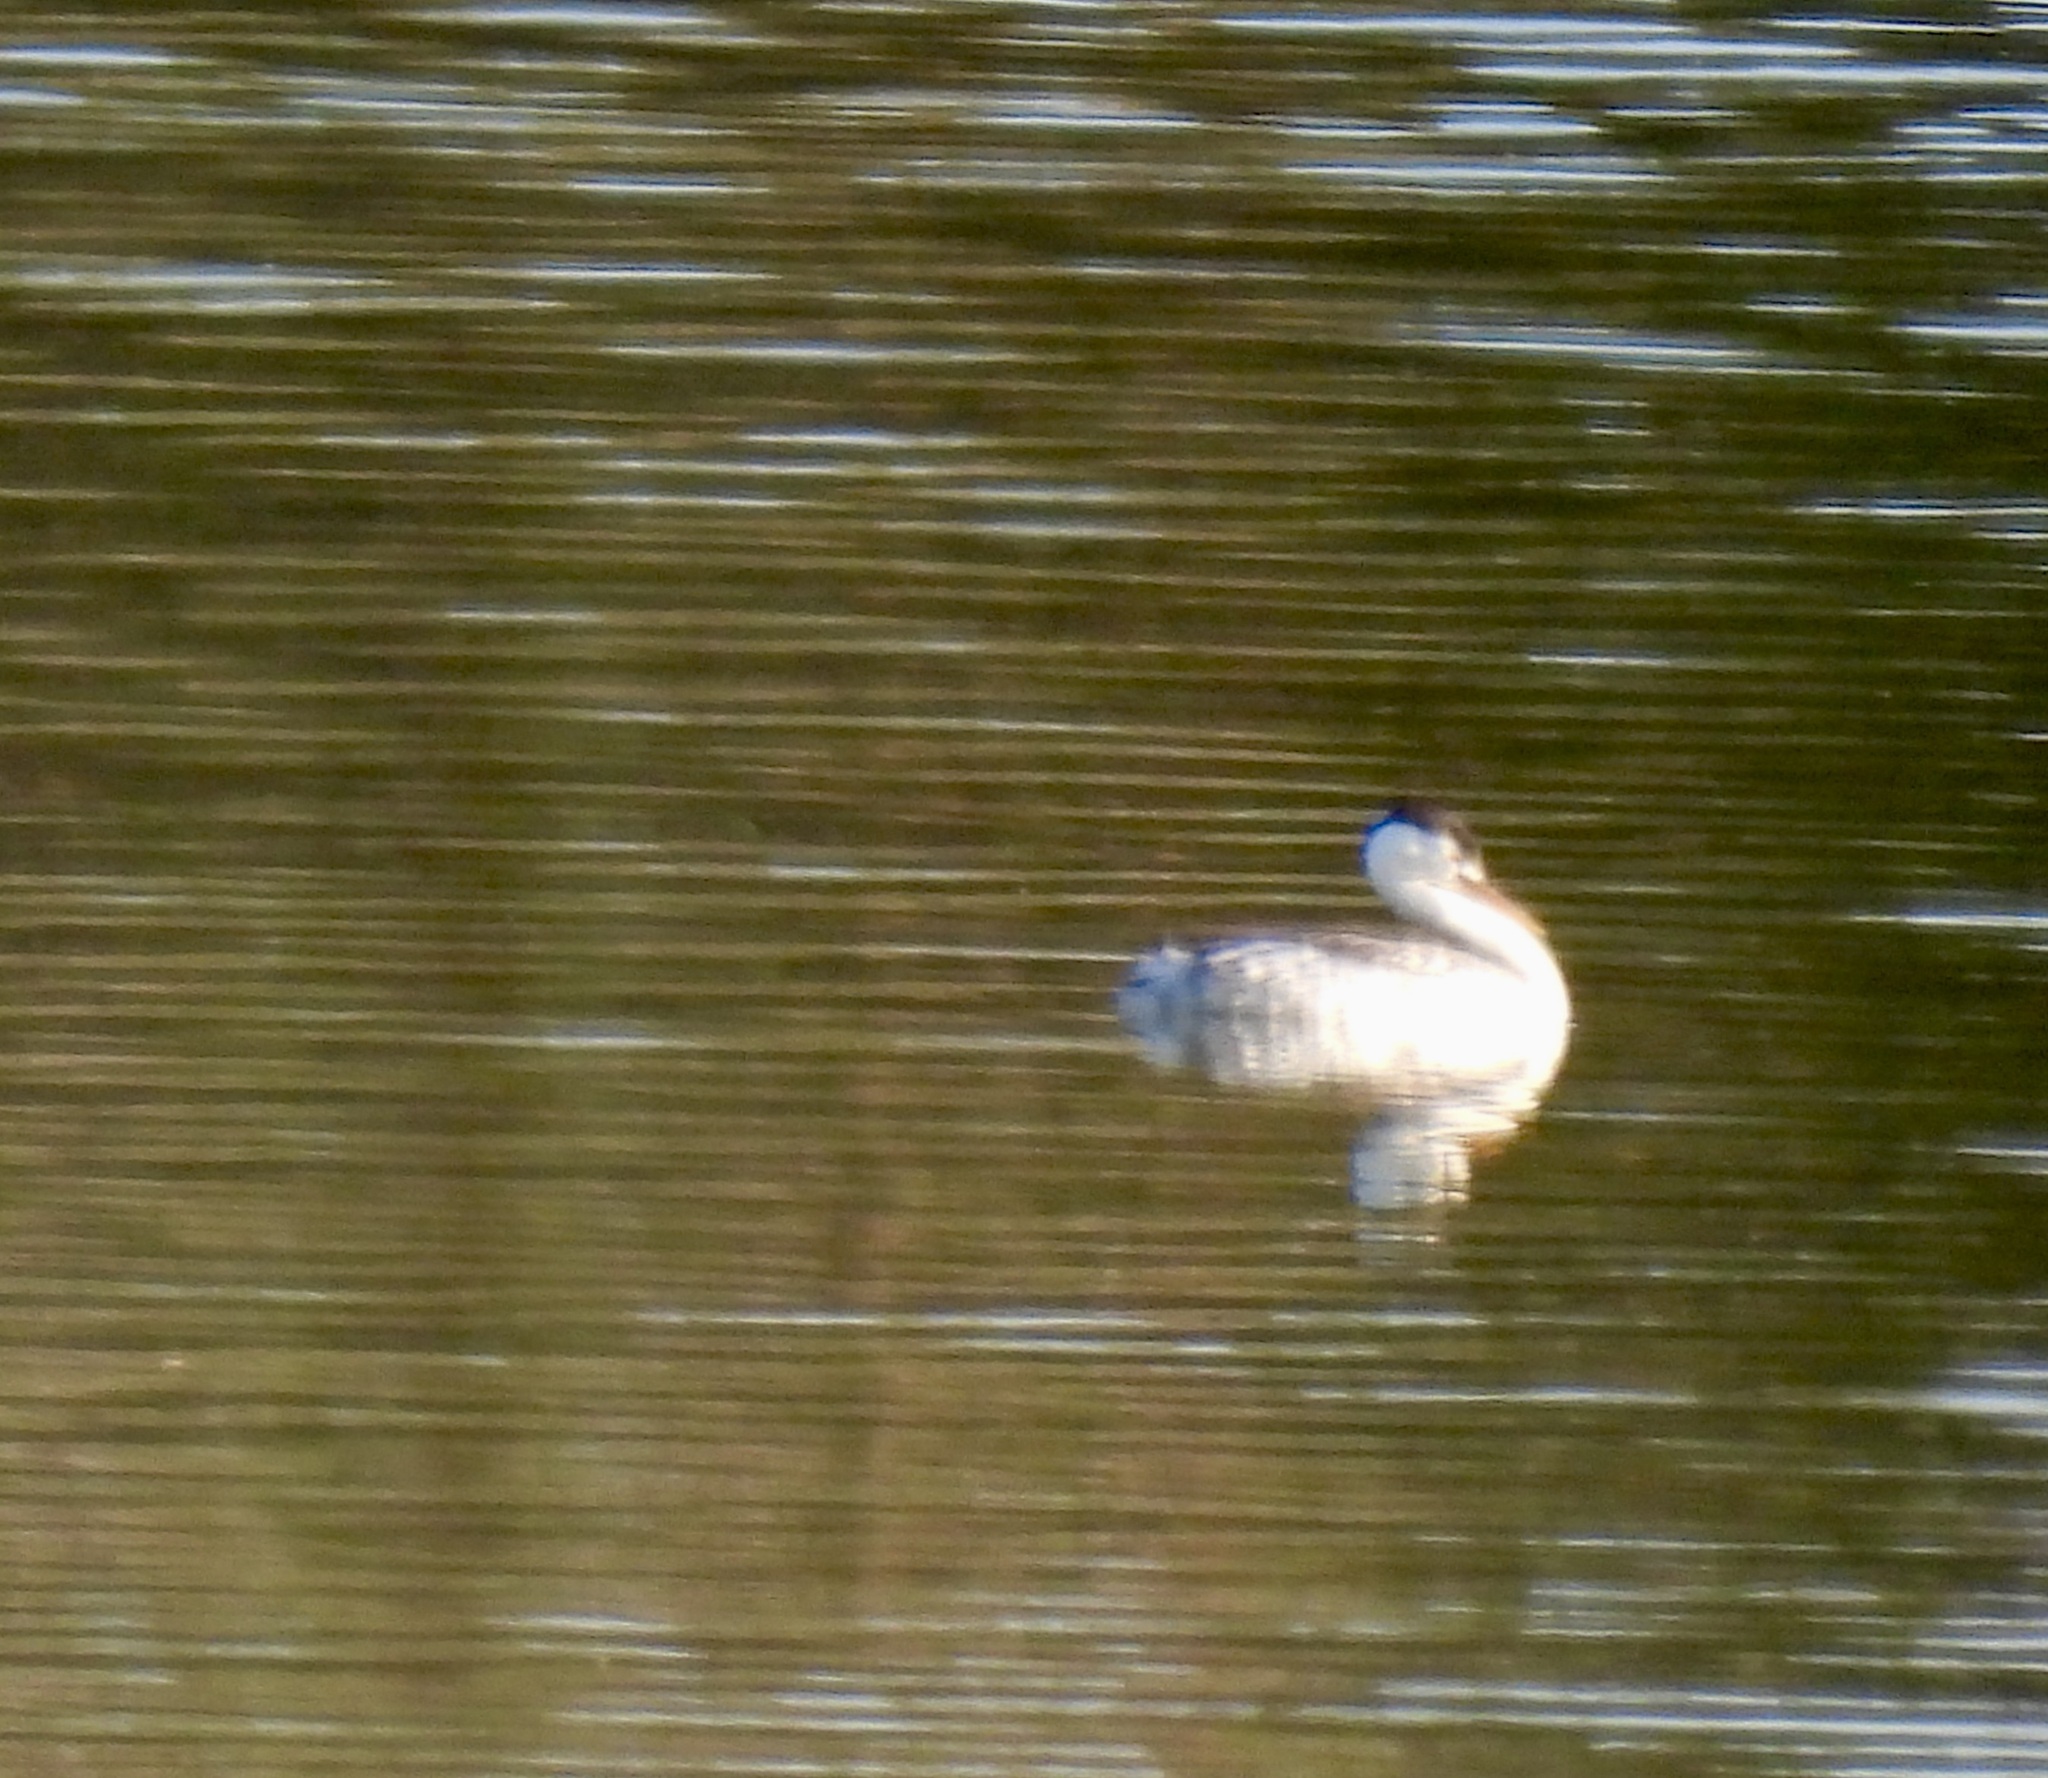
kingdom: Animalia
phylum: Chordata
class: Aves
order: Podicipediformes
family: Podicipedidae
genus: Aechmophorus
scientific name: Aechmophorus clarkii
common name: Clark's grebe
